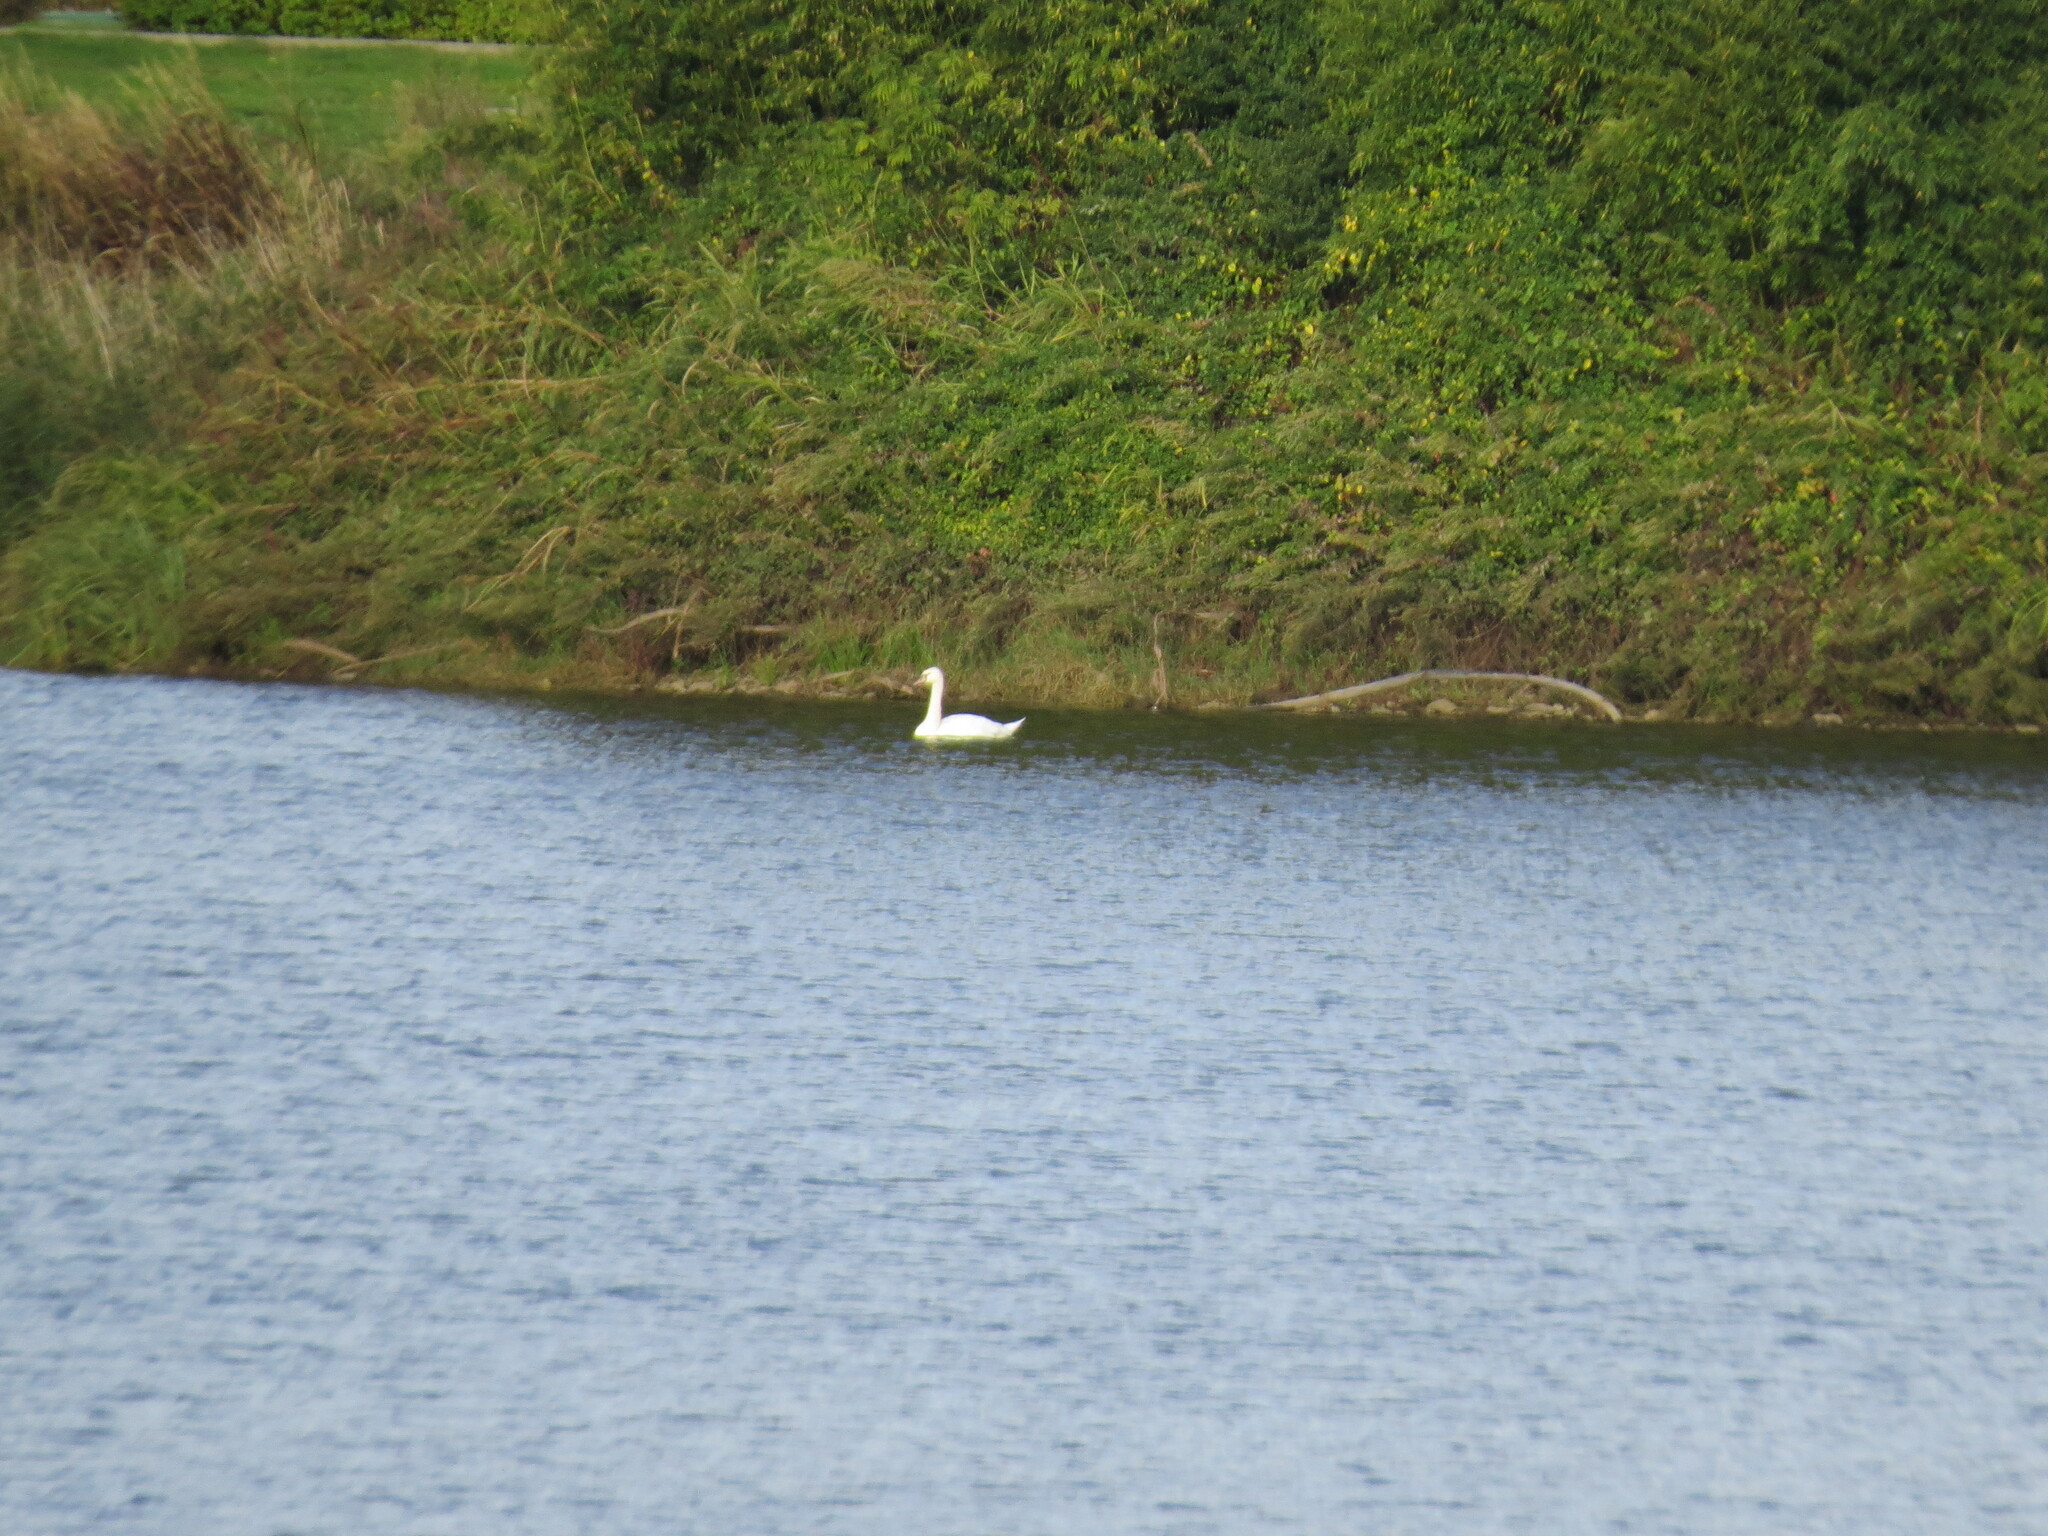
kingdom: Animalia
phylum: Chordata
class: Aves
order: Anseriformes
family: Anatidae
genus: Cygnus
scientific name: Cygnus olor
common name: Mute swan
